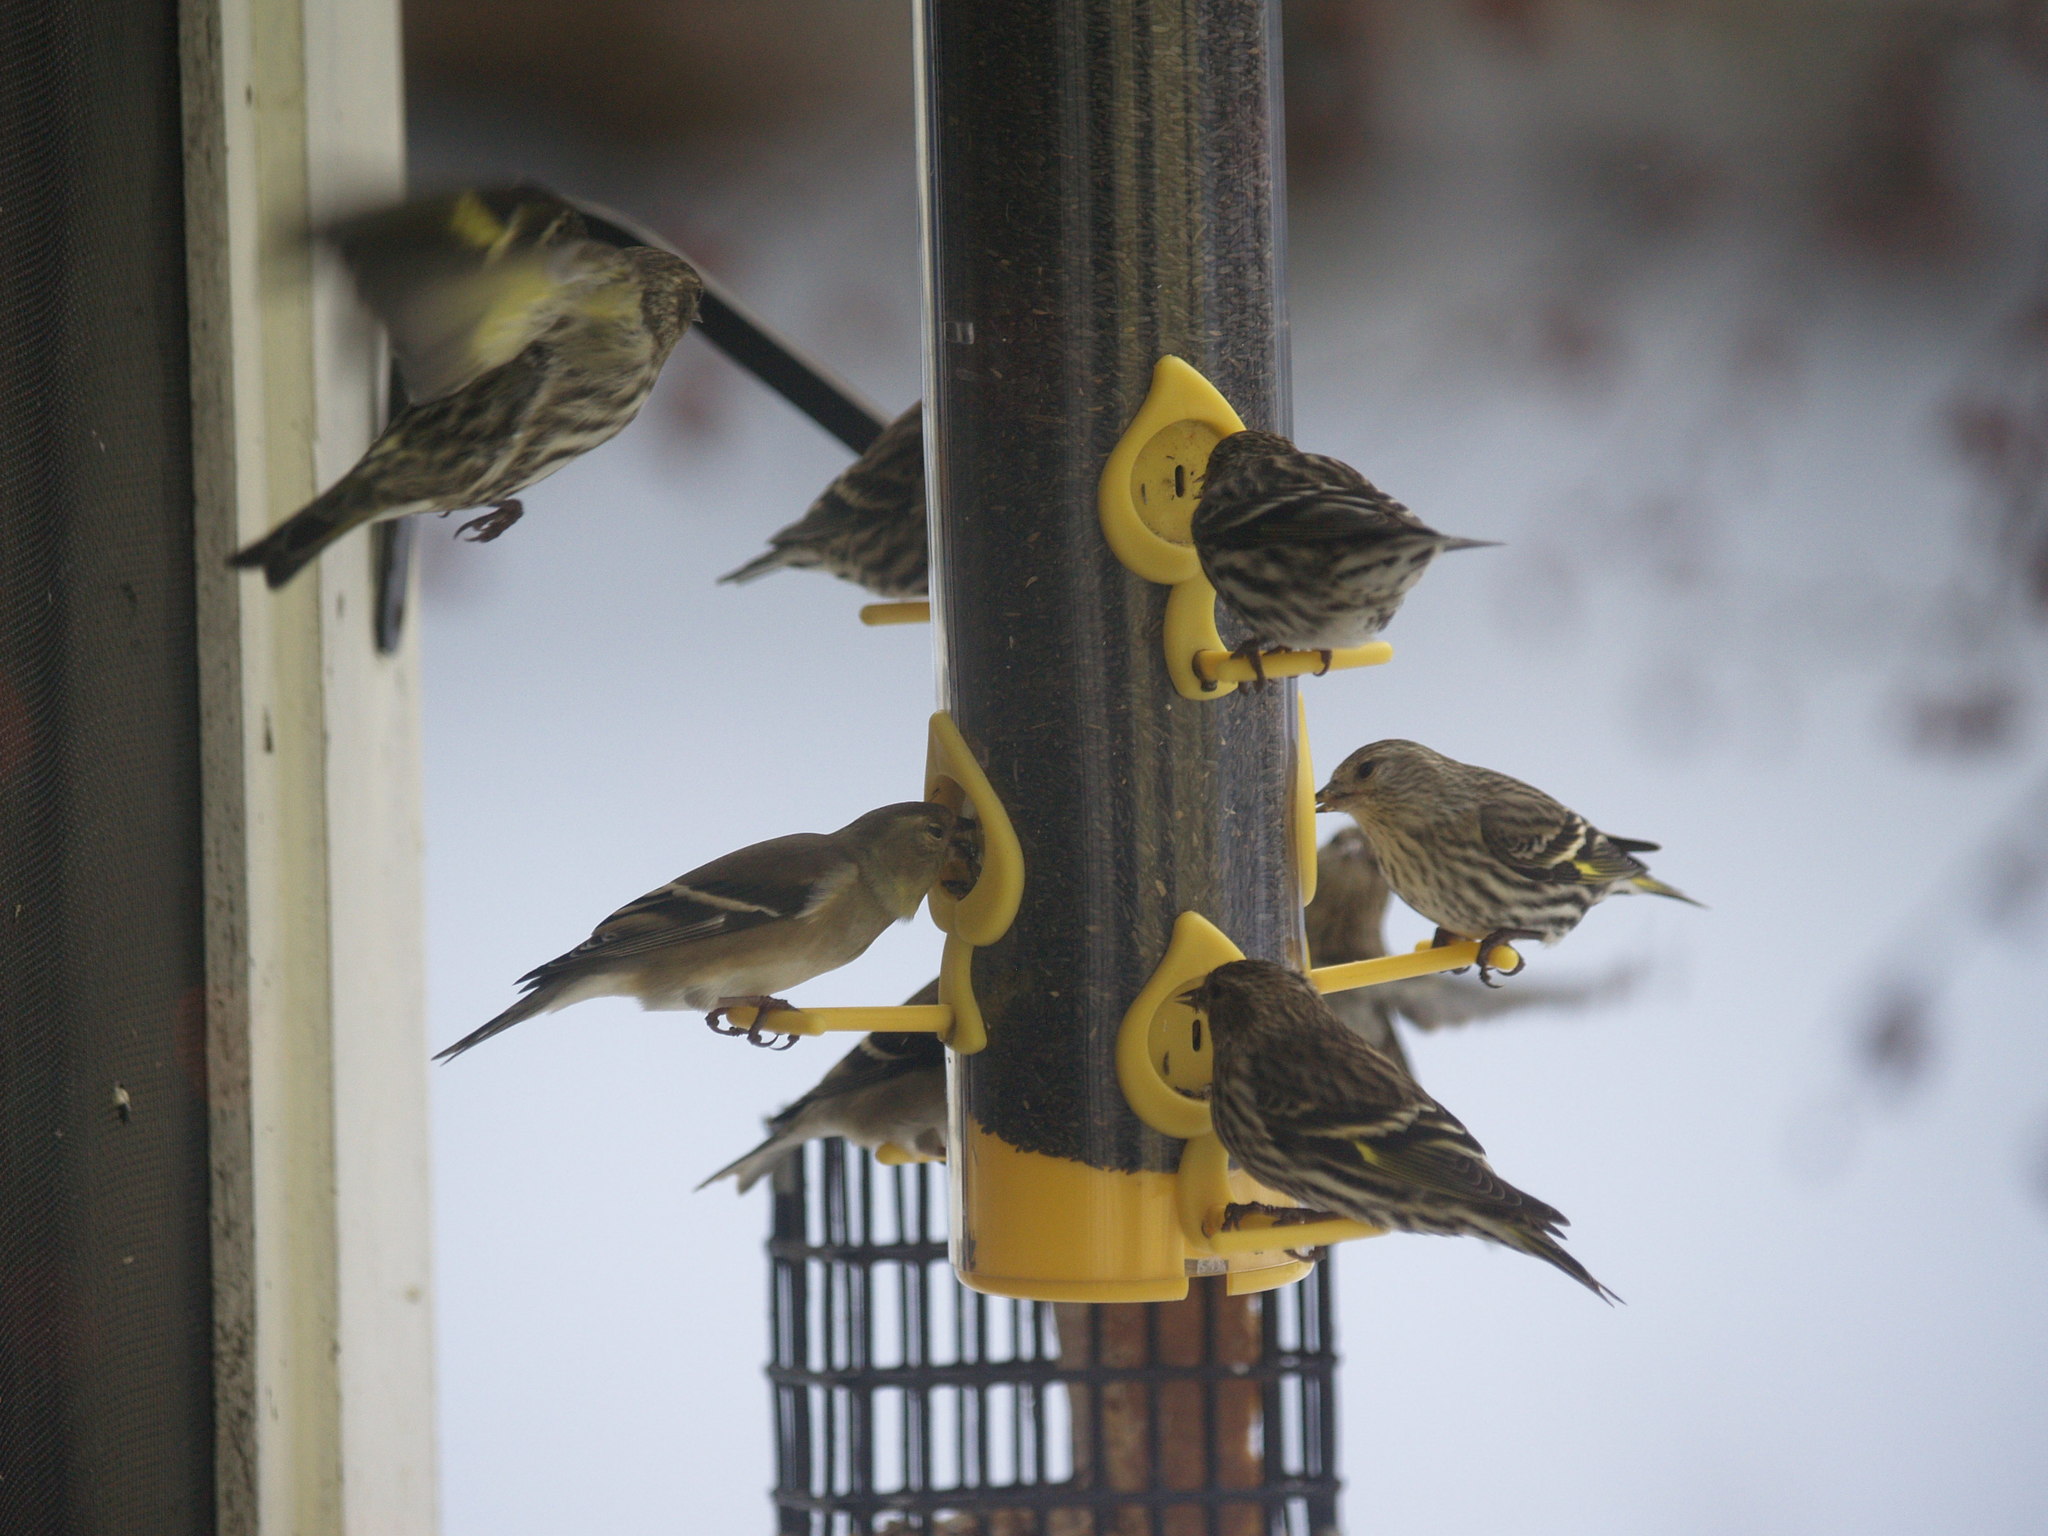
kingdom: Animalia
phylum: Chordata
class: Aves
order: Passeriformes
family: Fringillidae
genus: Spinus
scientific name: Spinus tristis
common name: American goldfinch
